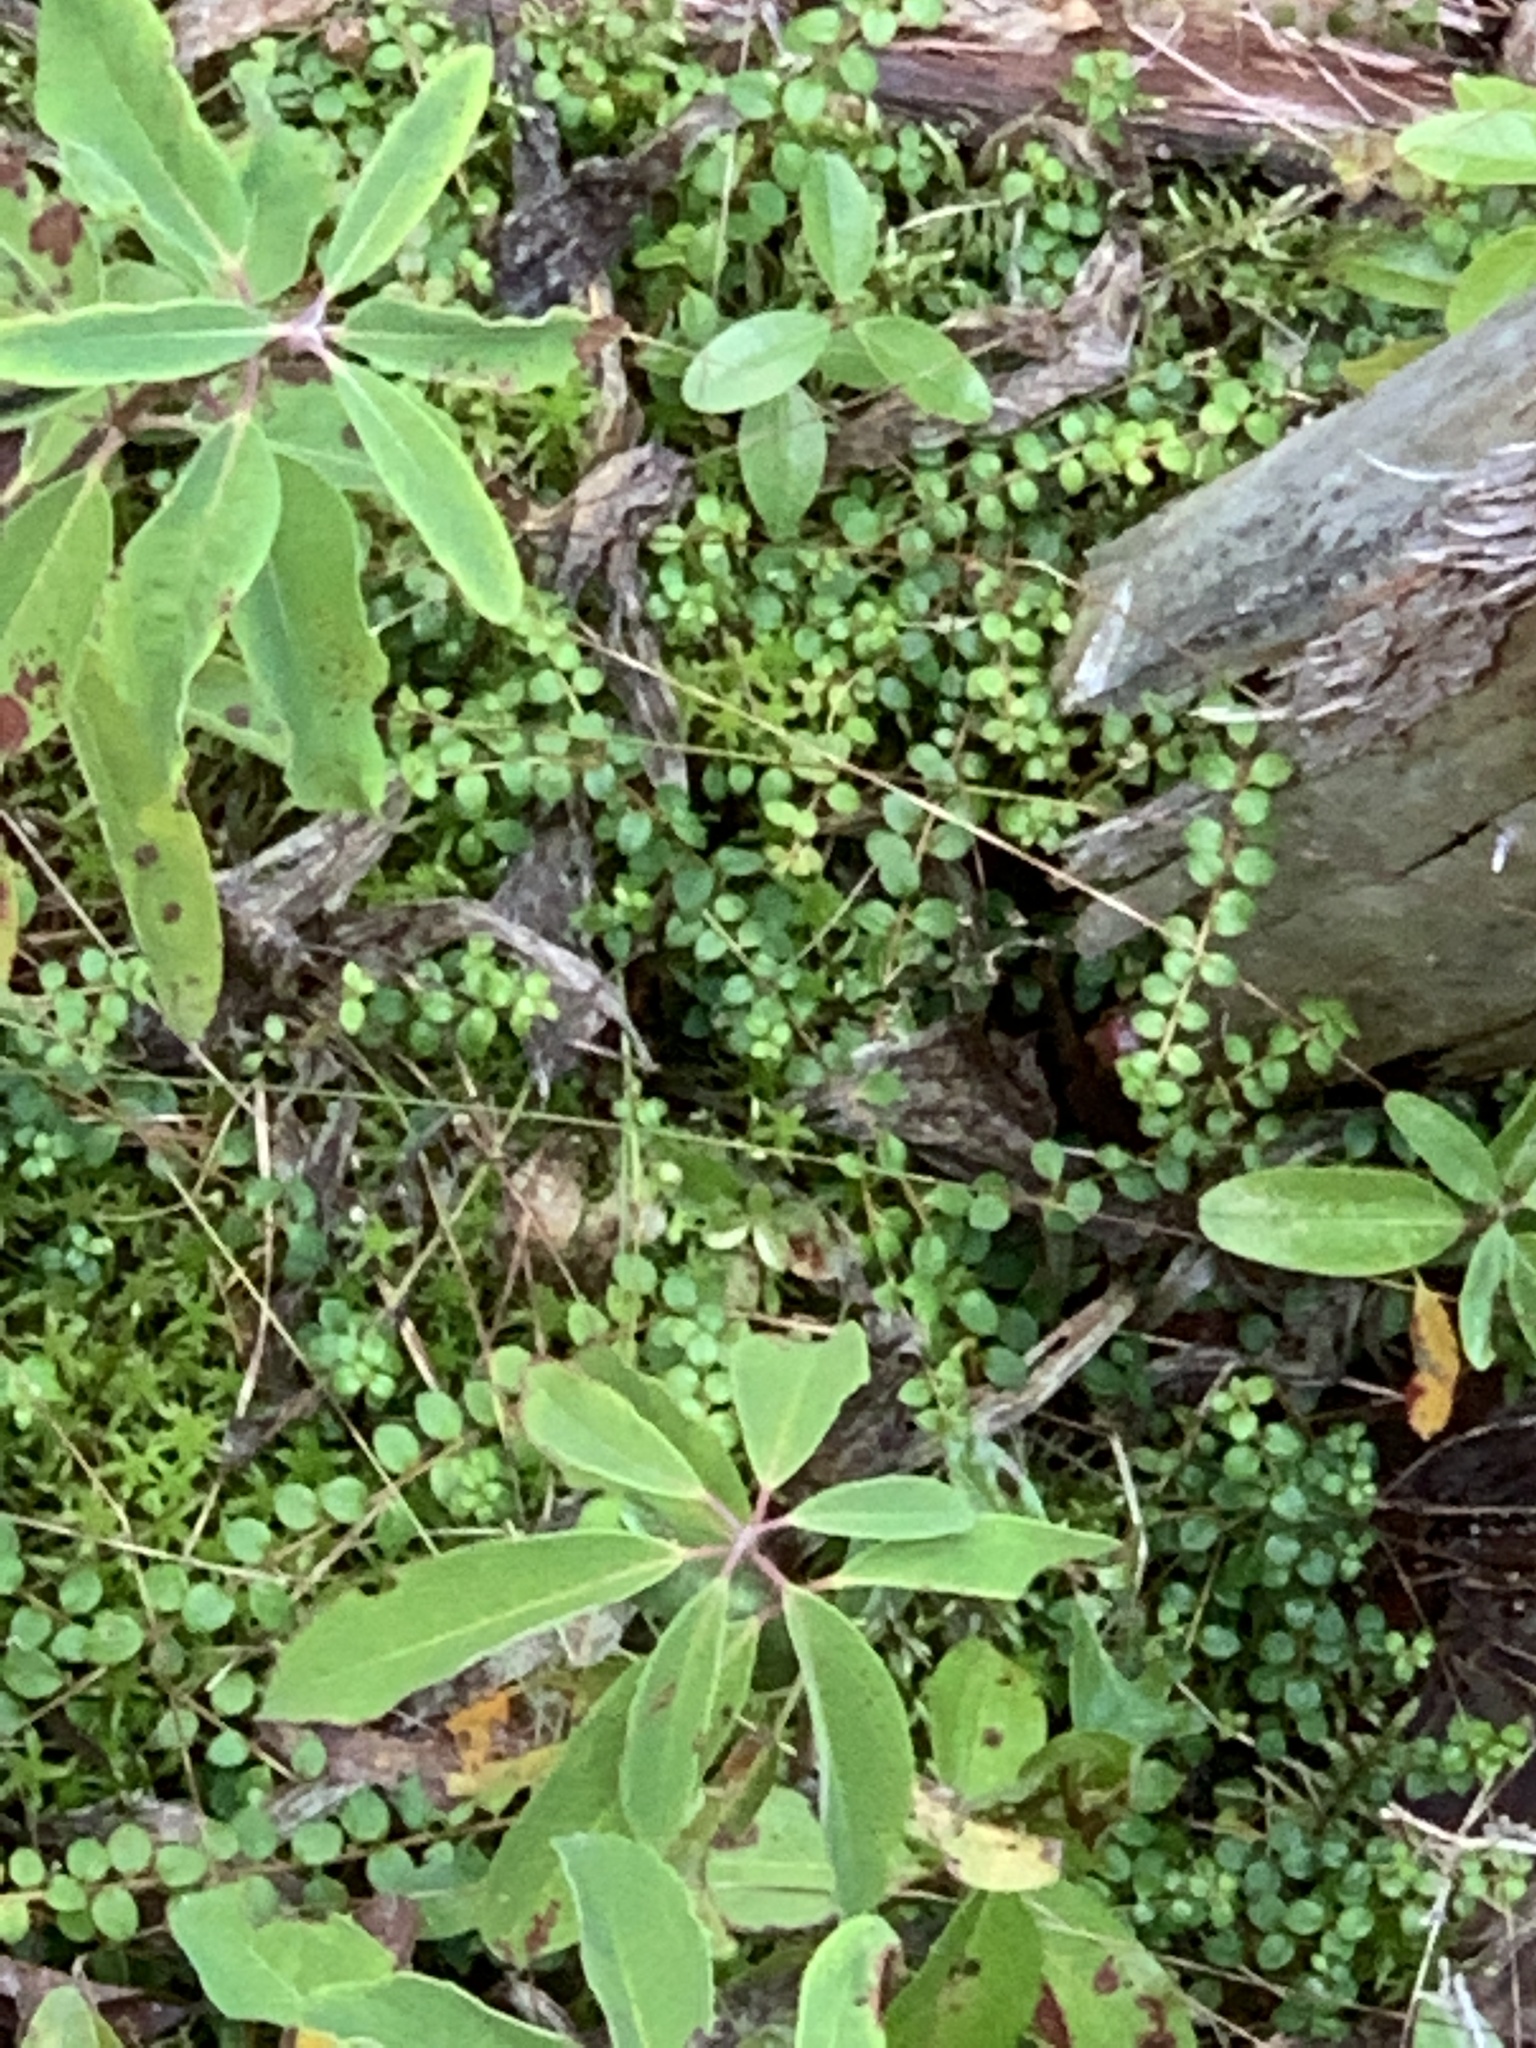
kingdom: Plantae
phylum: Tracheophyta
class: Magnoliopsida
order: Ericales
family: Ericaceae
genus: Gaultheria
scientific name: Gaultheria hispidula
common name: Cancer wintergreen
